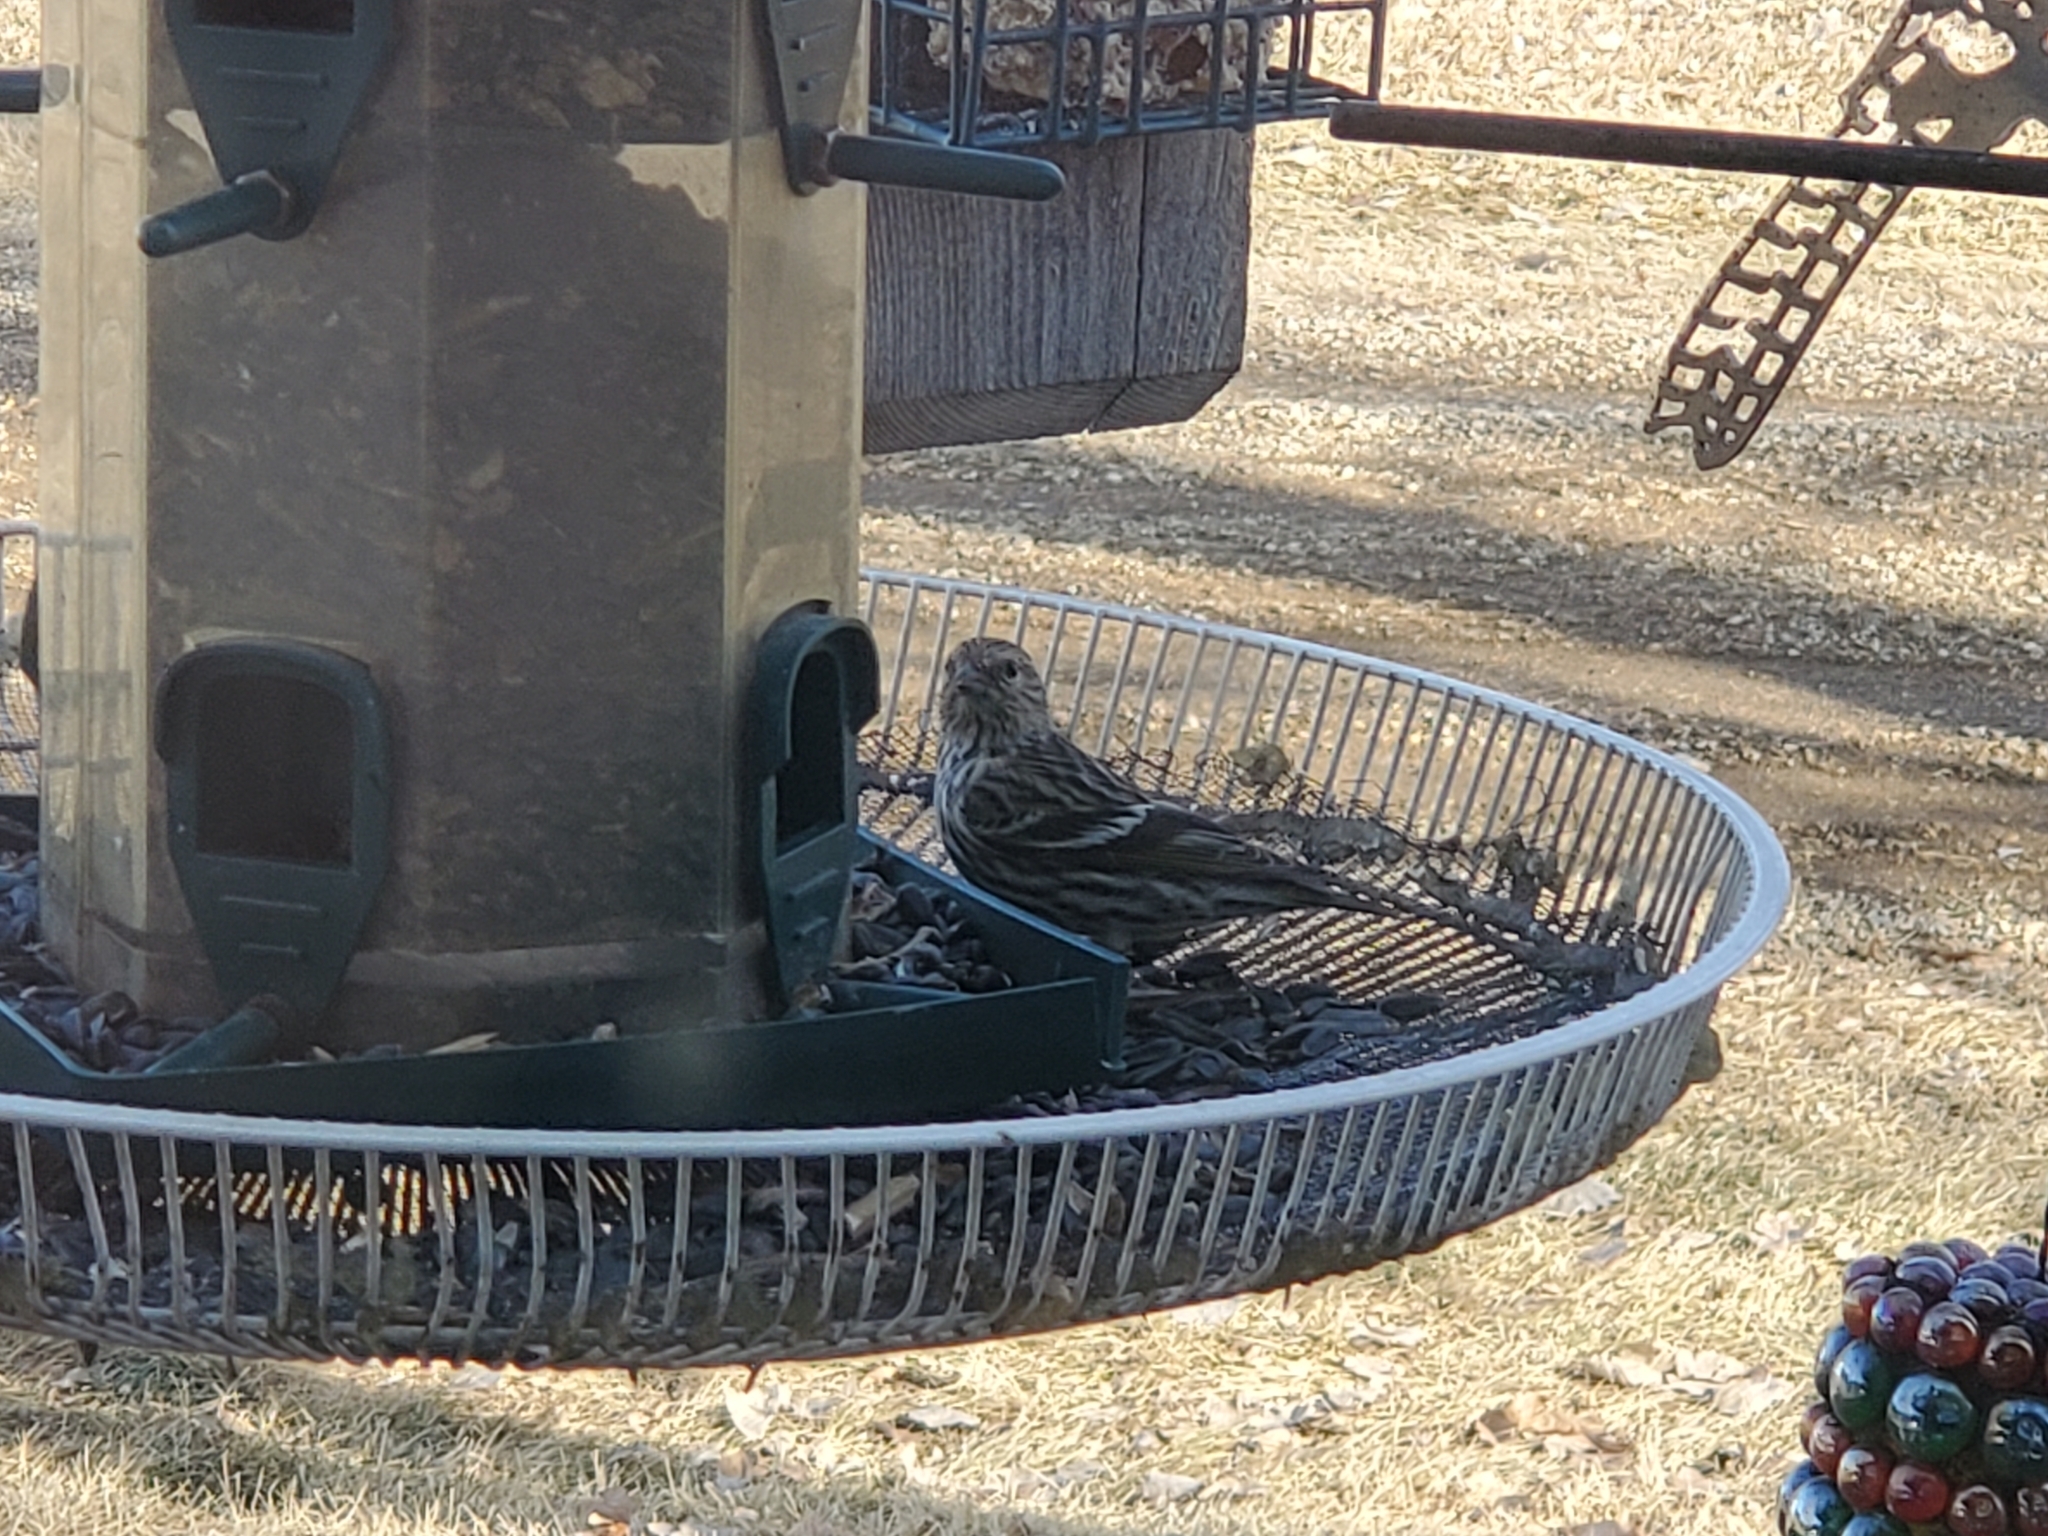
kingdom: Animalia
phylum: Chordata
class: Aves
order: Passeriformes
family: Fringillidae
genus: Spinus
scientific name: Spinus pinus
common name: Pine siskin
